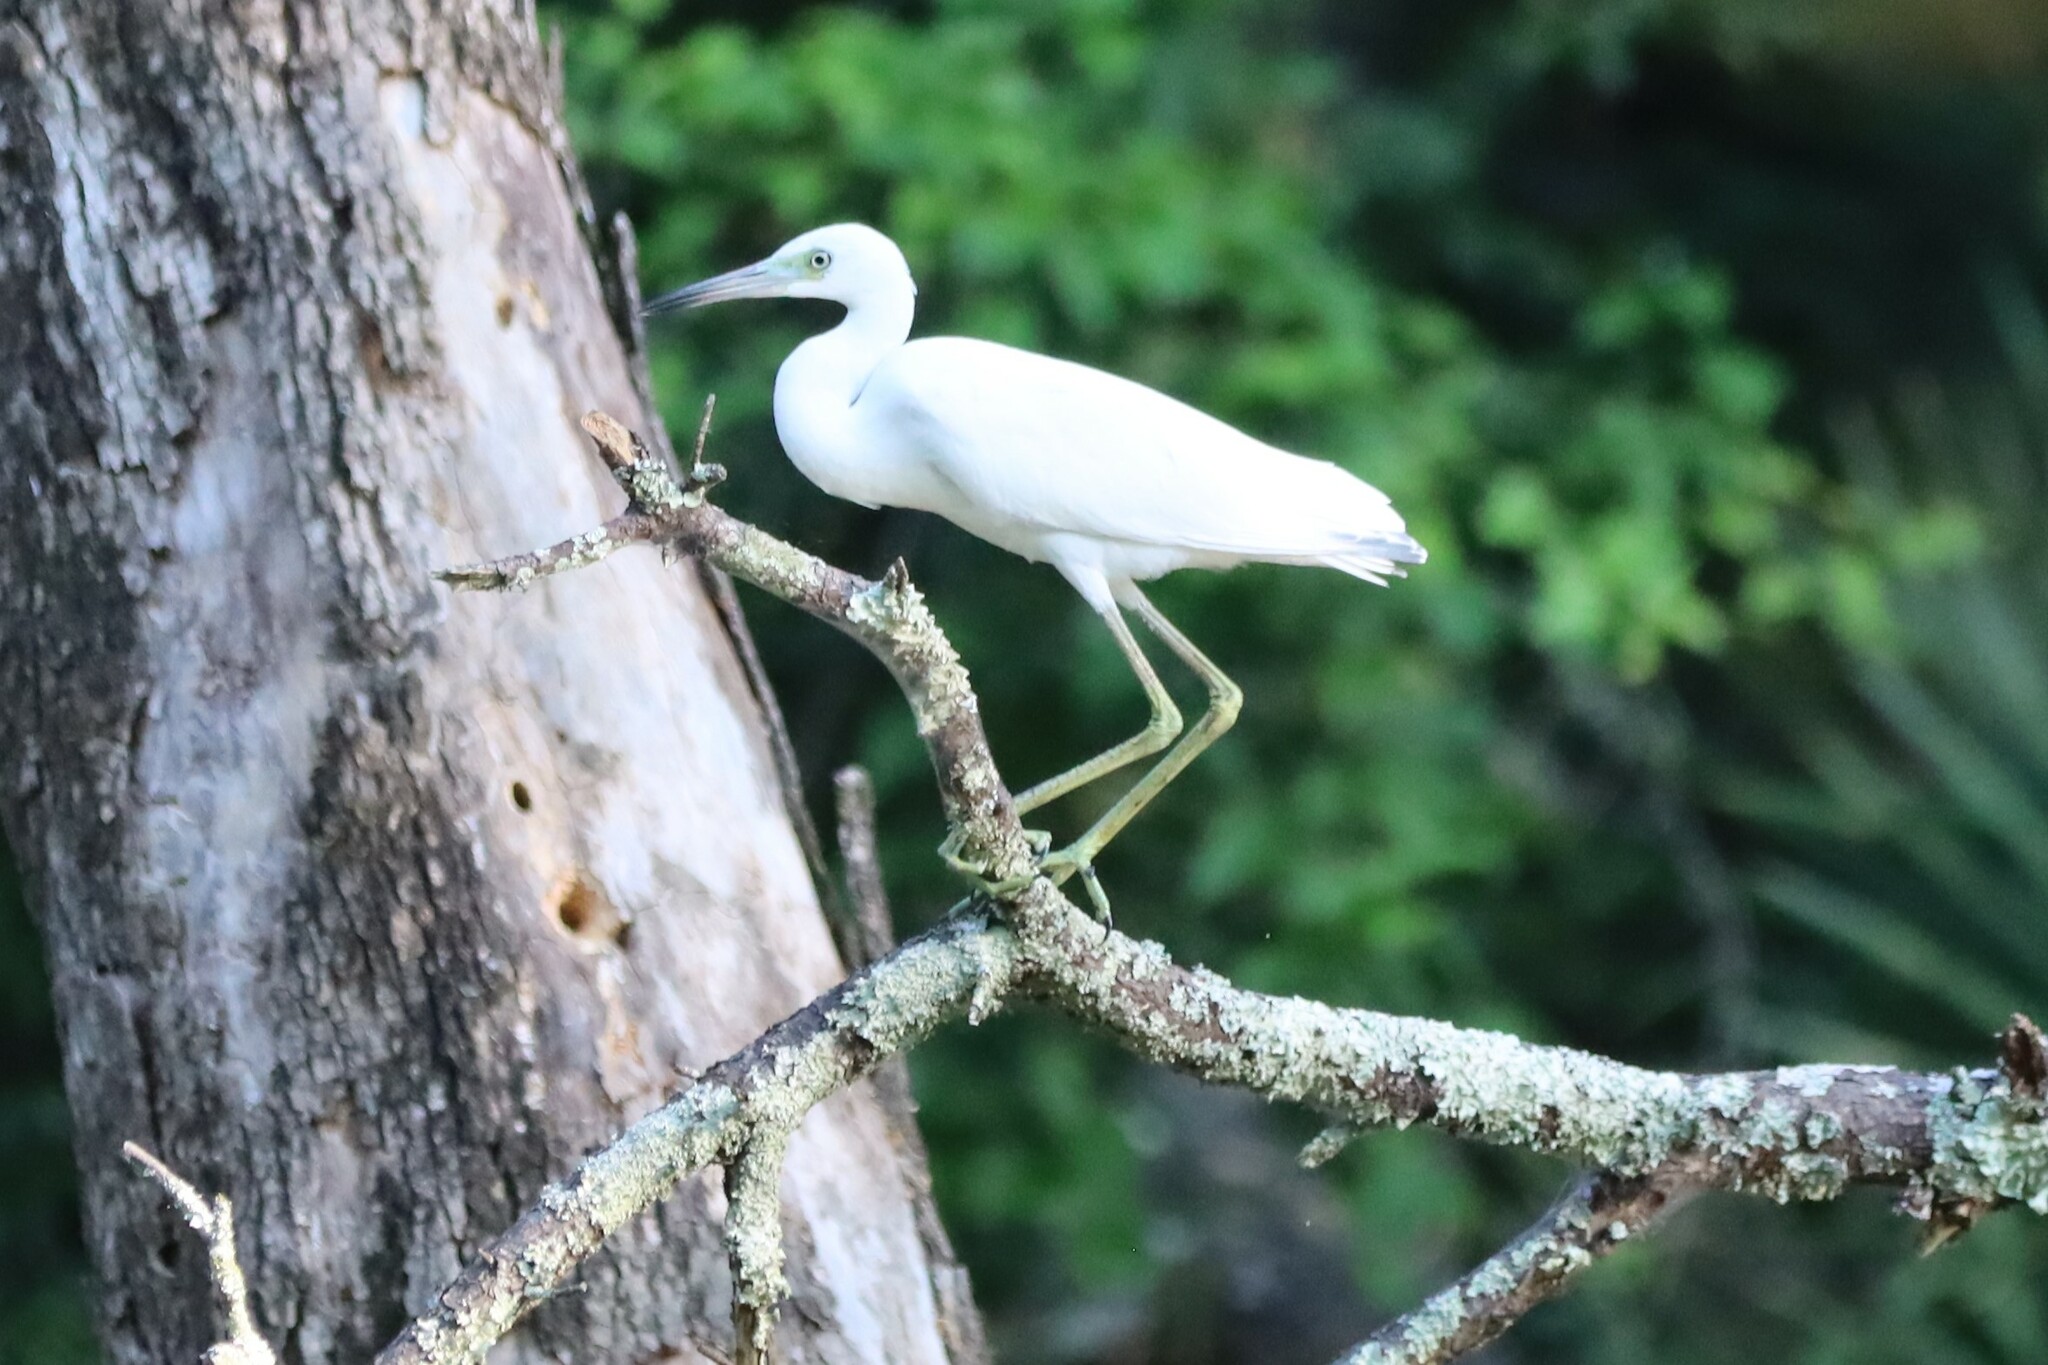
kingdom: Animalia
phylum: Chordata
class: Aves
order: Pelecaniformes
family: Ardeidae
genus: Egretta
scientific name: Egretta caerulea
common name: Little blue heron
